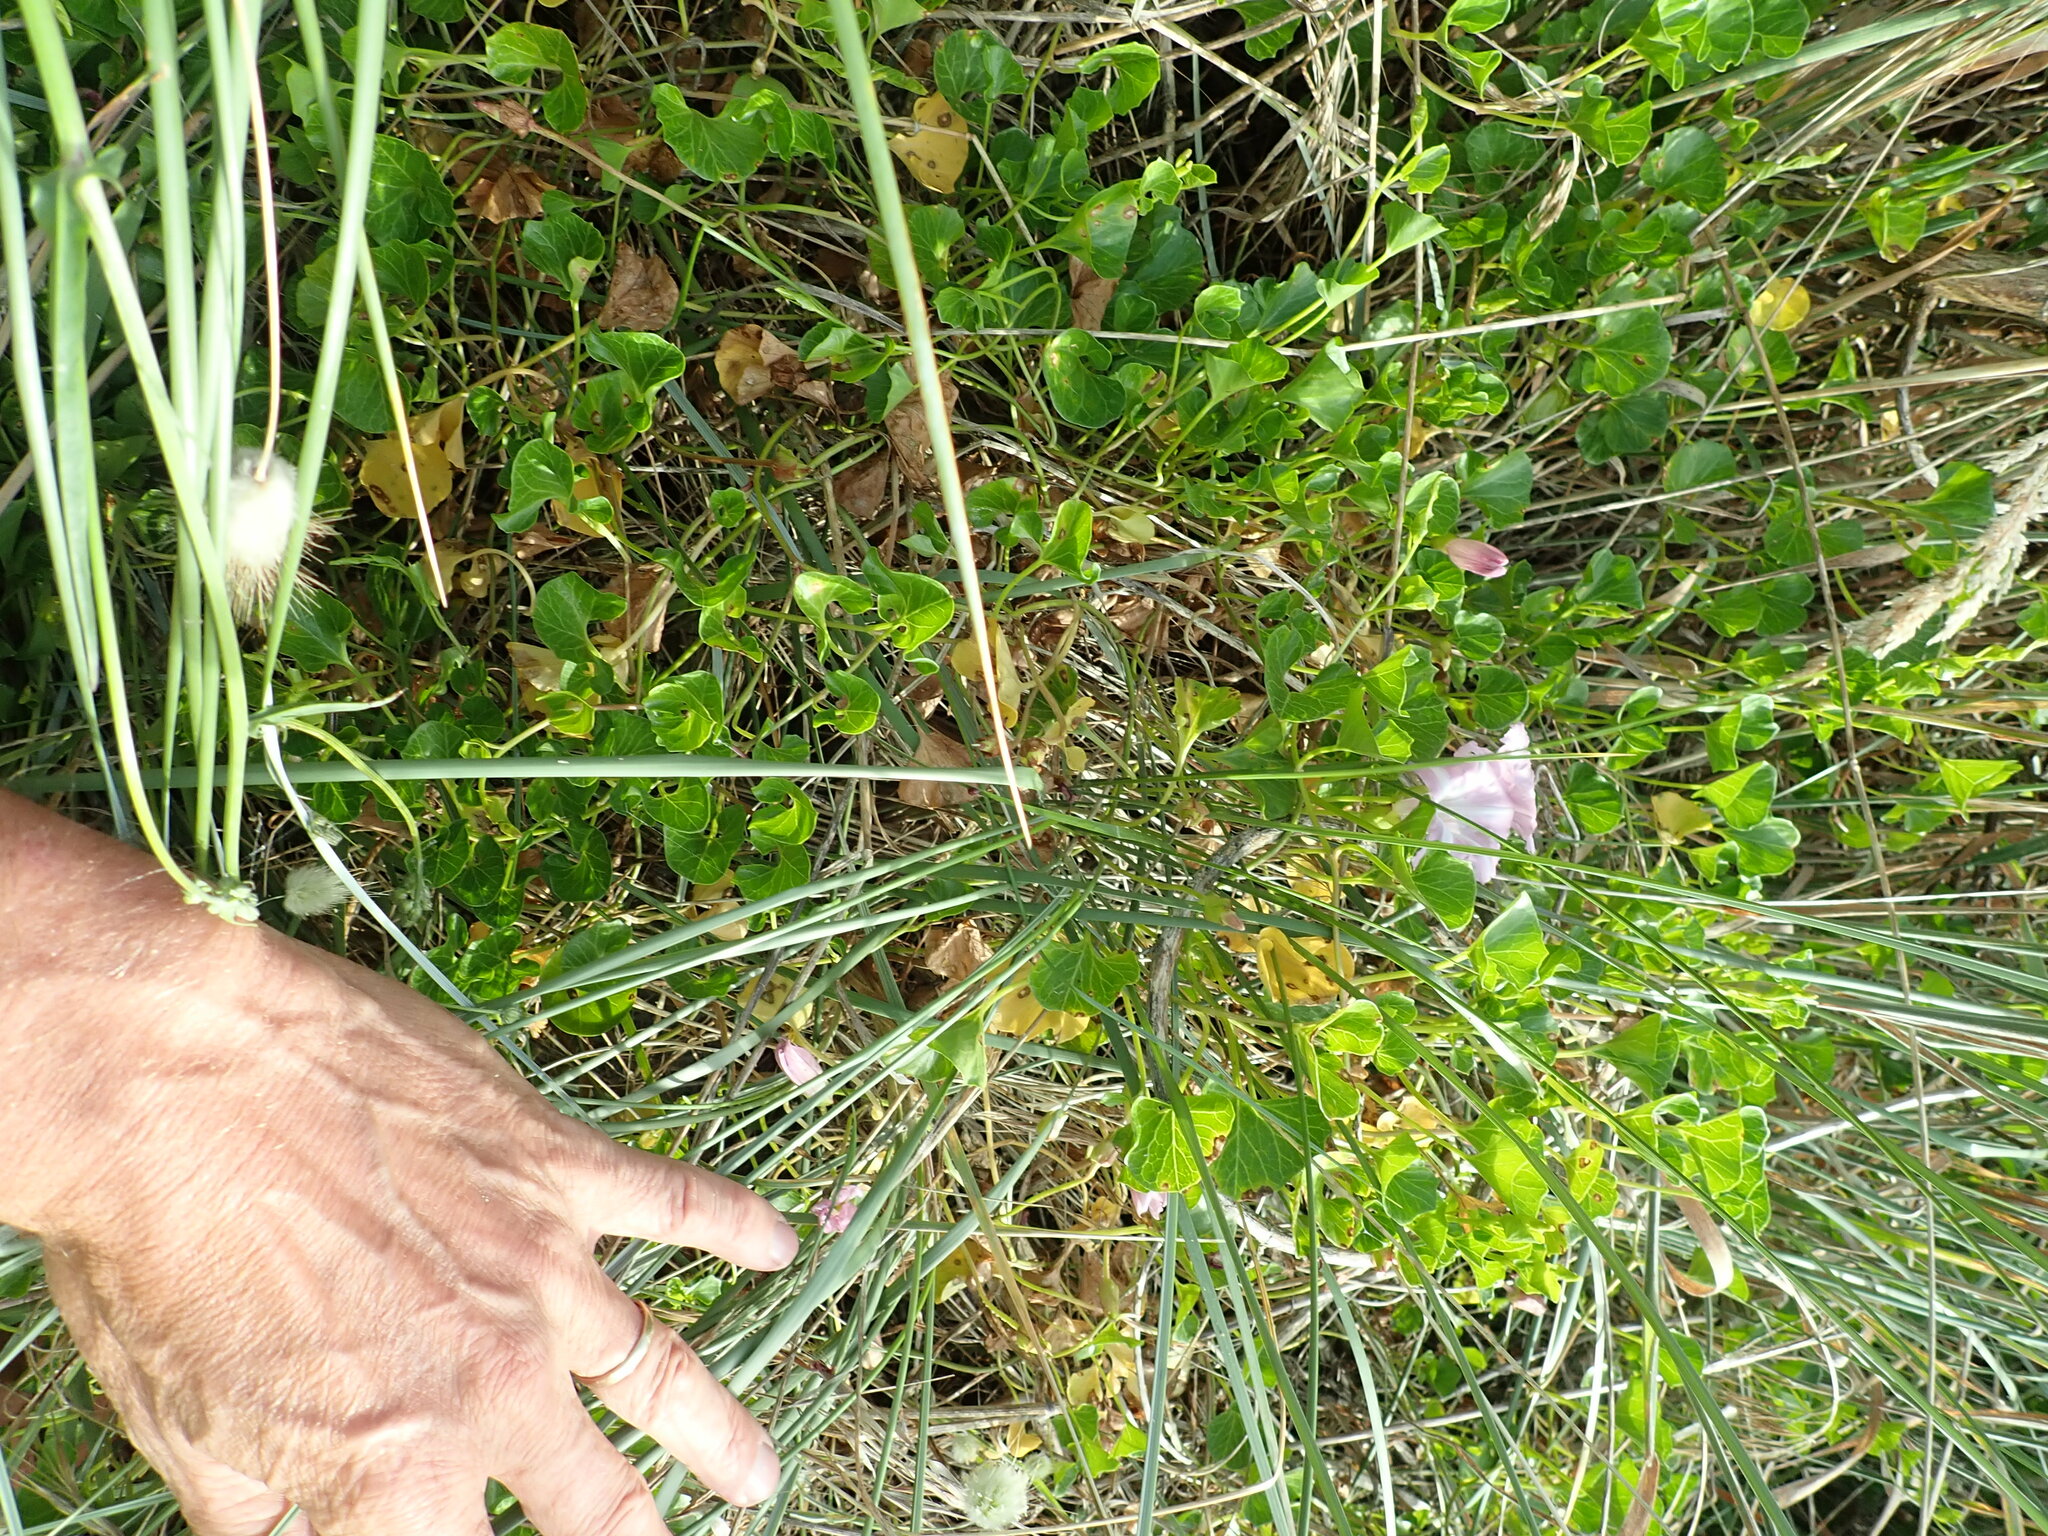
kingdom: Plantae
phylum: Tracheophyta
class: Magnoliopsida
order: Solanales
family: Convolvulaceae
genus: Calystegia
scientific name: Calystegia soldanella
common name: Sea bindweed
